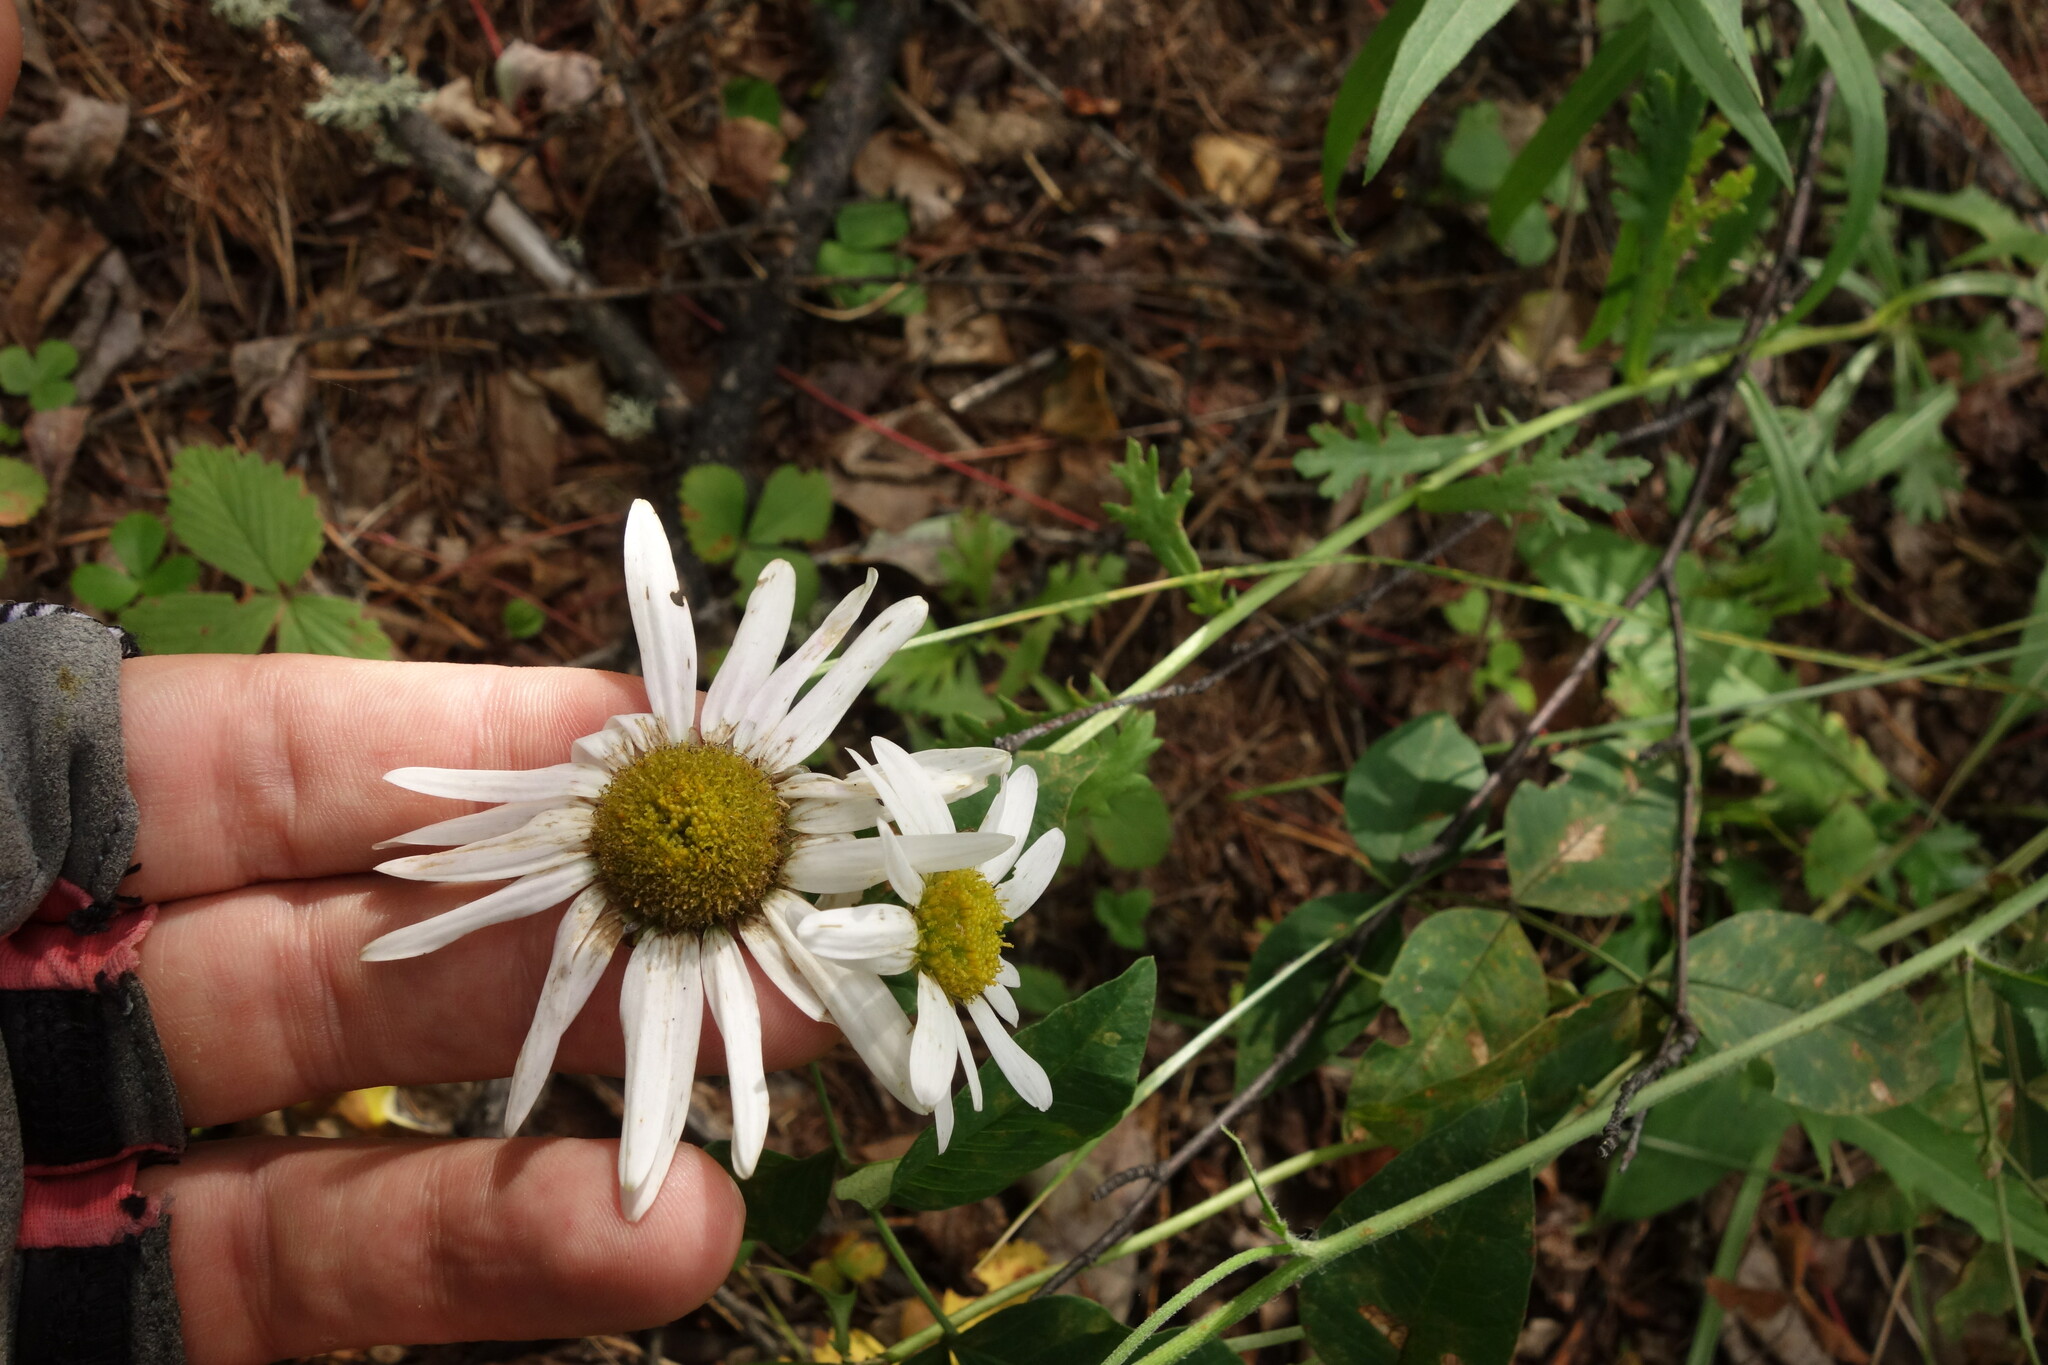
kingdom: Plantae
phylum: Tracheophyta
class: Magnoliopsida
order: Asterales
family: Asteraceae
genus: Chrysanthemum
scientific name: Chrysanthemum zawadzkii
